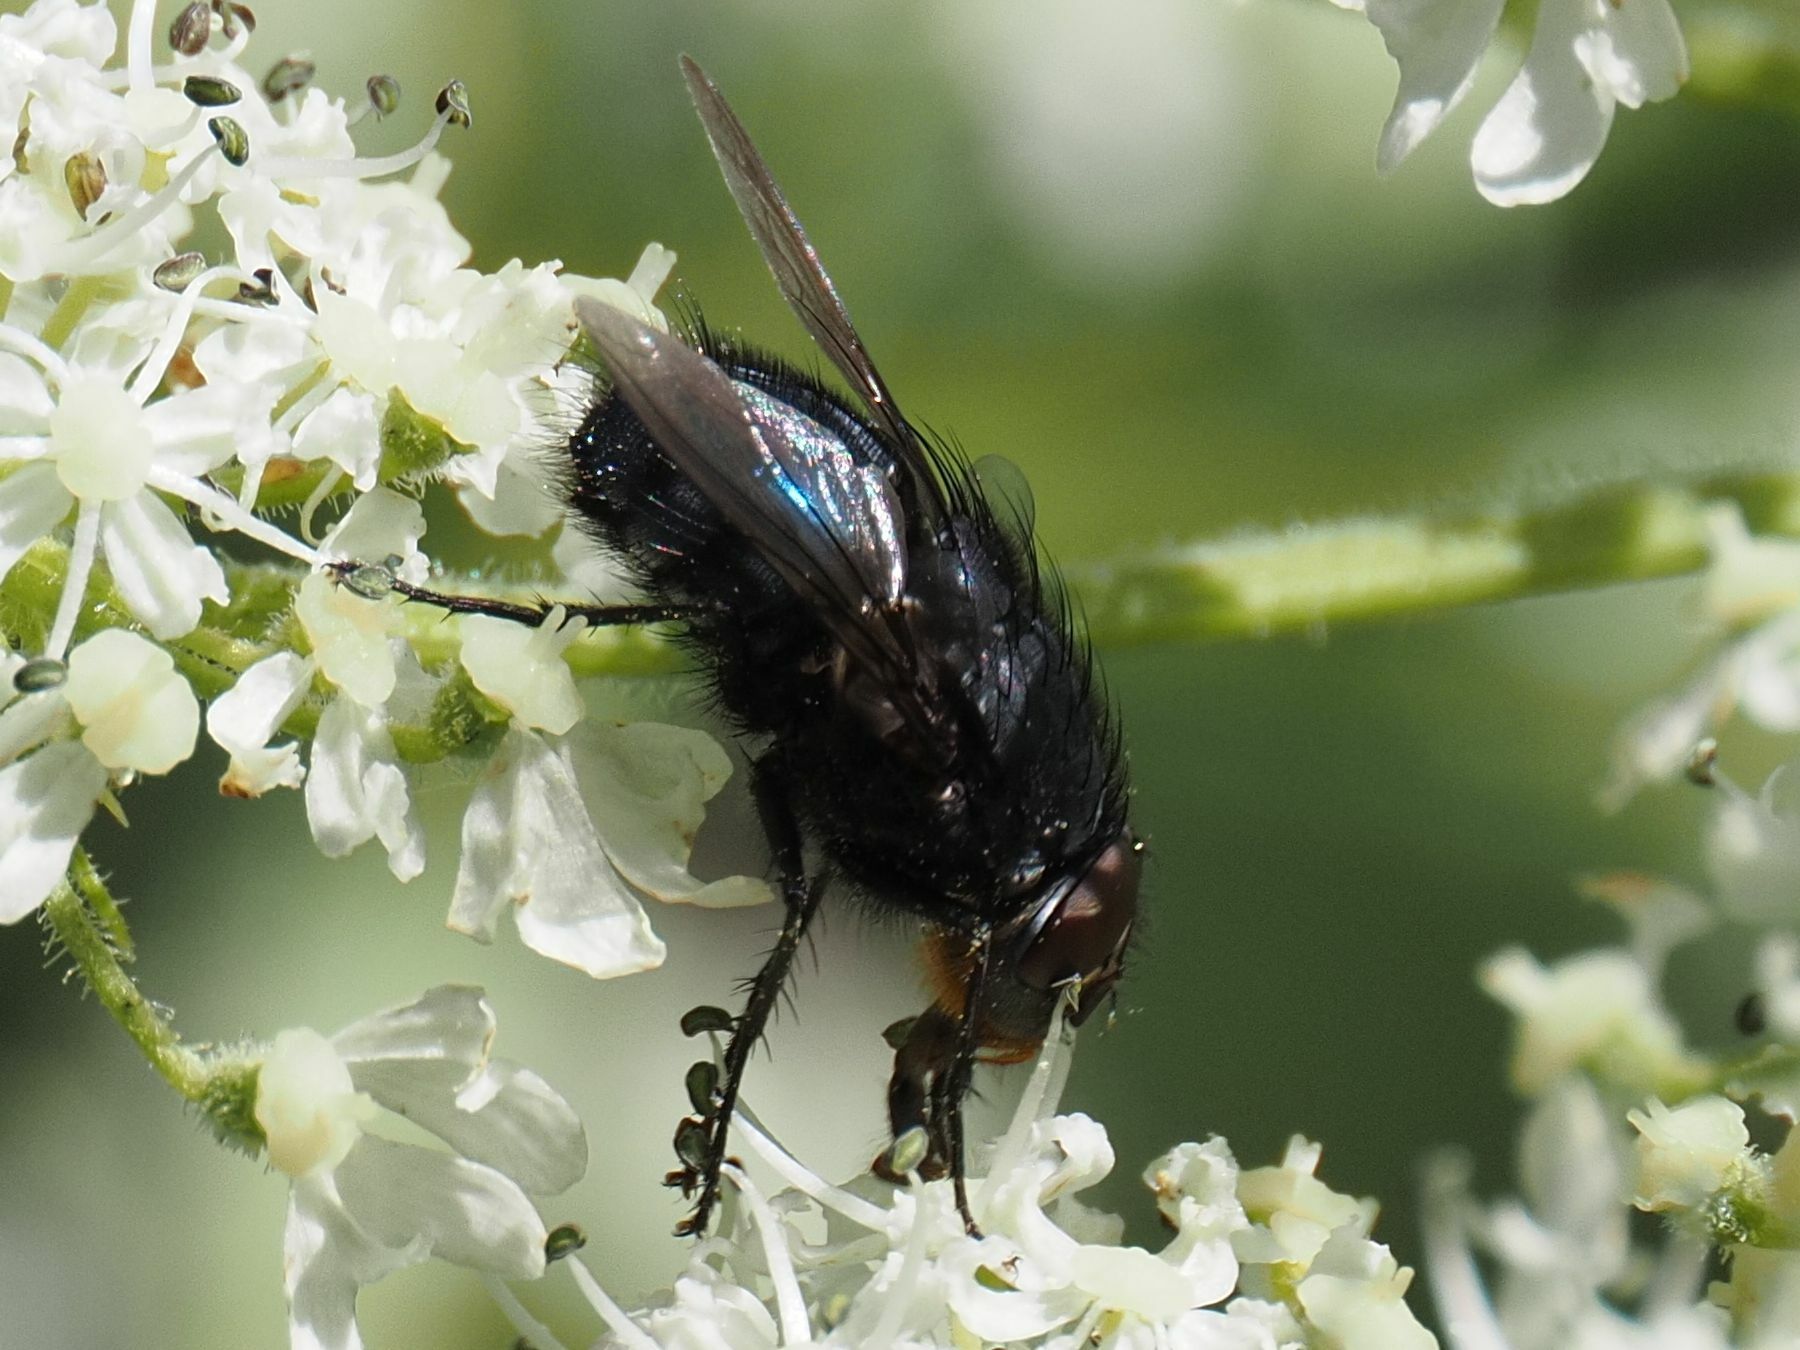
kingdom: Animalia
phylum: Arthropoda
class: Insecta
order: Diptera
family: Calliphoridae
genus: Calliphora
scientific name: Calliphora vomitoria
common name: Blue bottle fly
